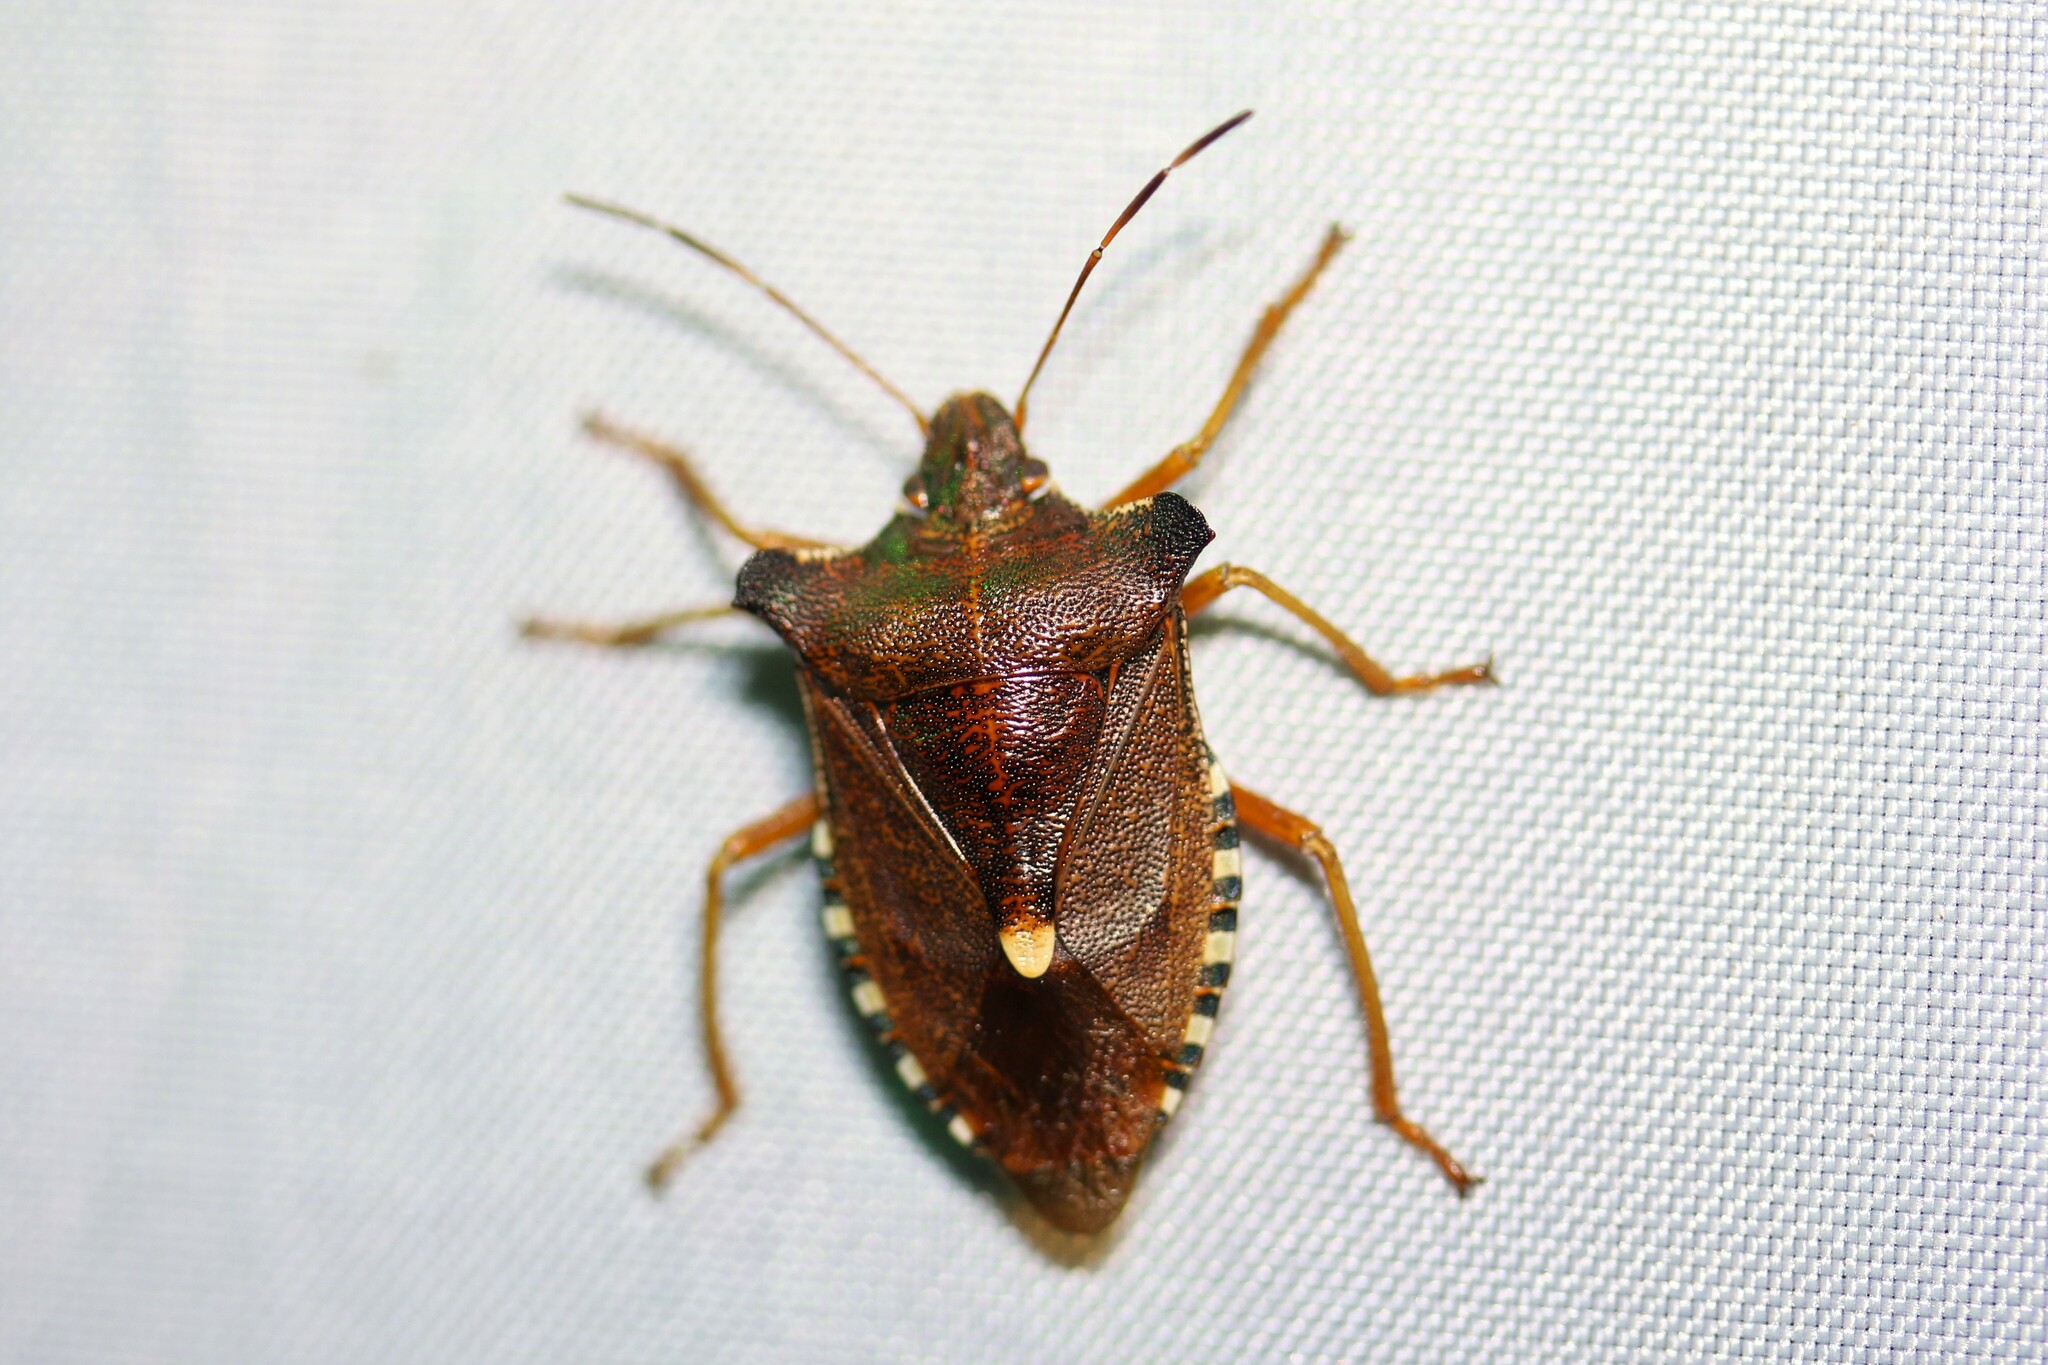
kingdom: Animalia
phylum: Arthropoda
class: Insecta
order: Hemiptera
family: Pentatomidae
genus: Pentatoma
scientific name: Pentatoma rufipes
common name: Forest bug
